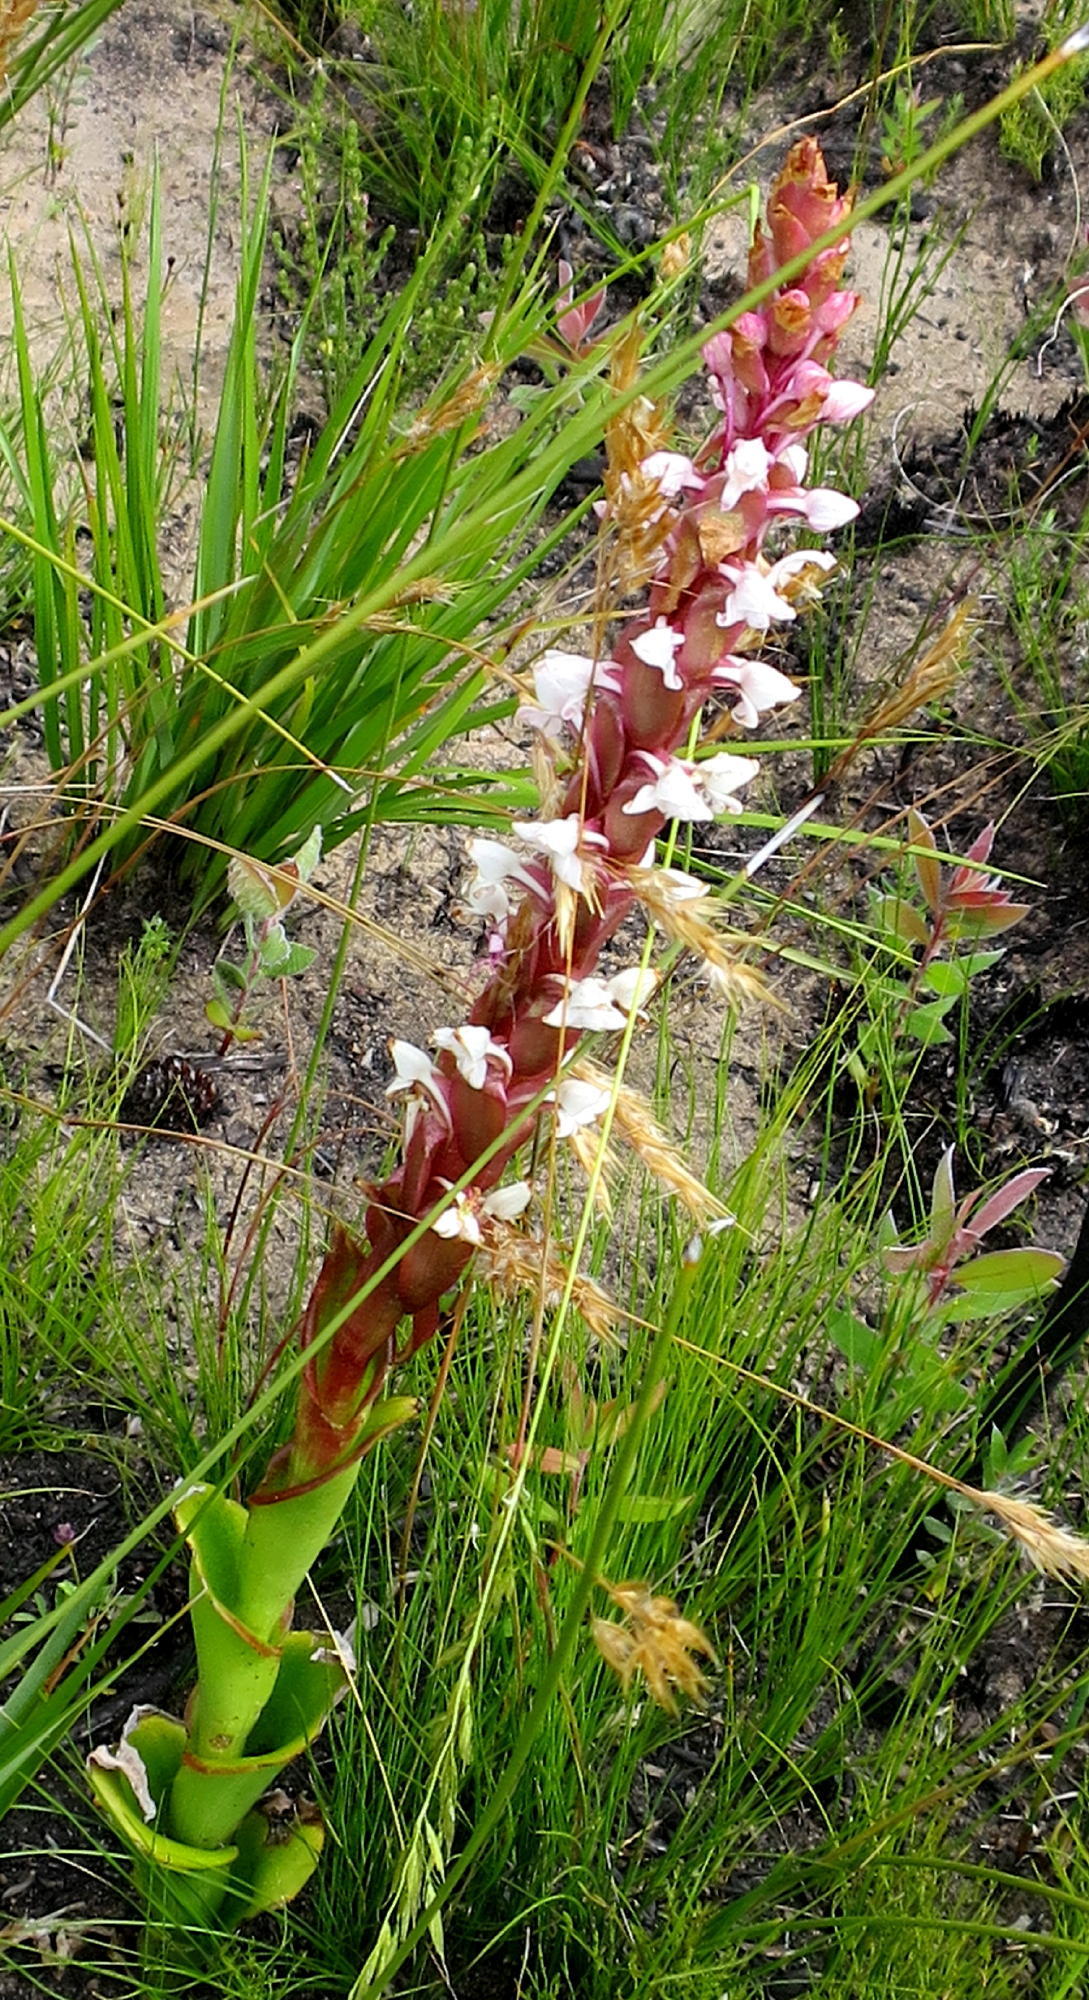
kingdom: Plantae
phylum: Tracheophyta
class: Liliopsida
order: Asparagales
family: Orchidaceae
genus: Satyrium
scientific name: Satyrium acuminatum
